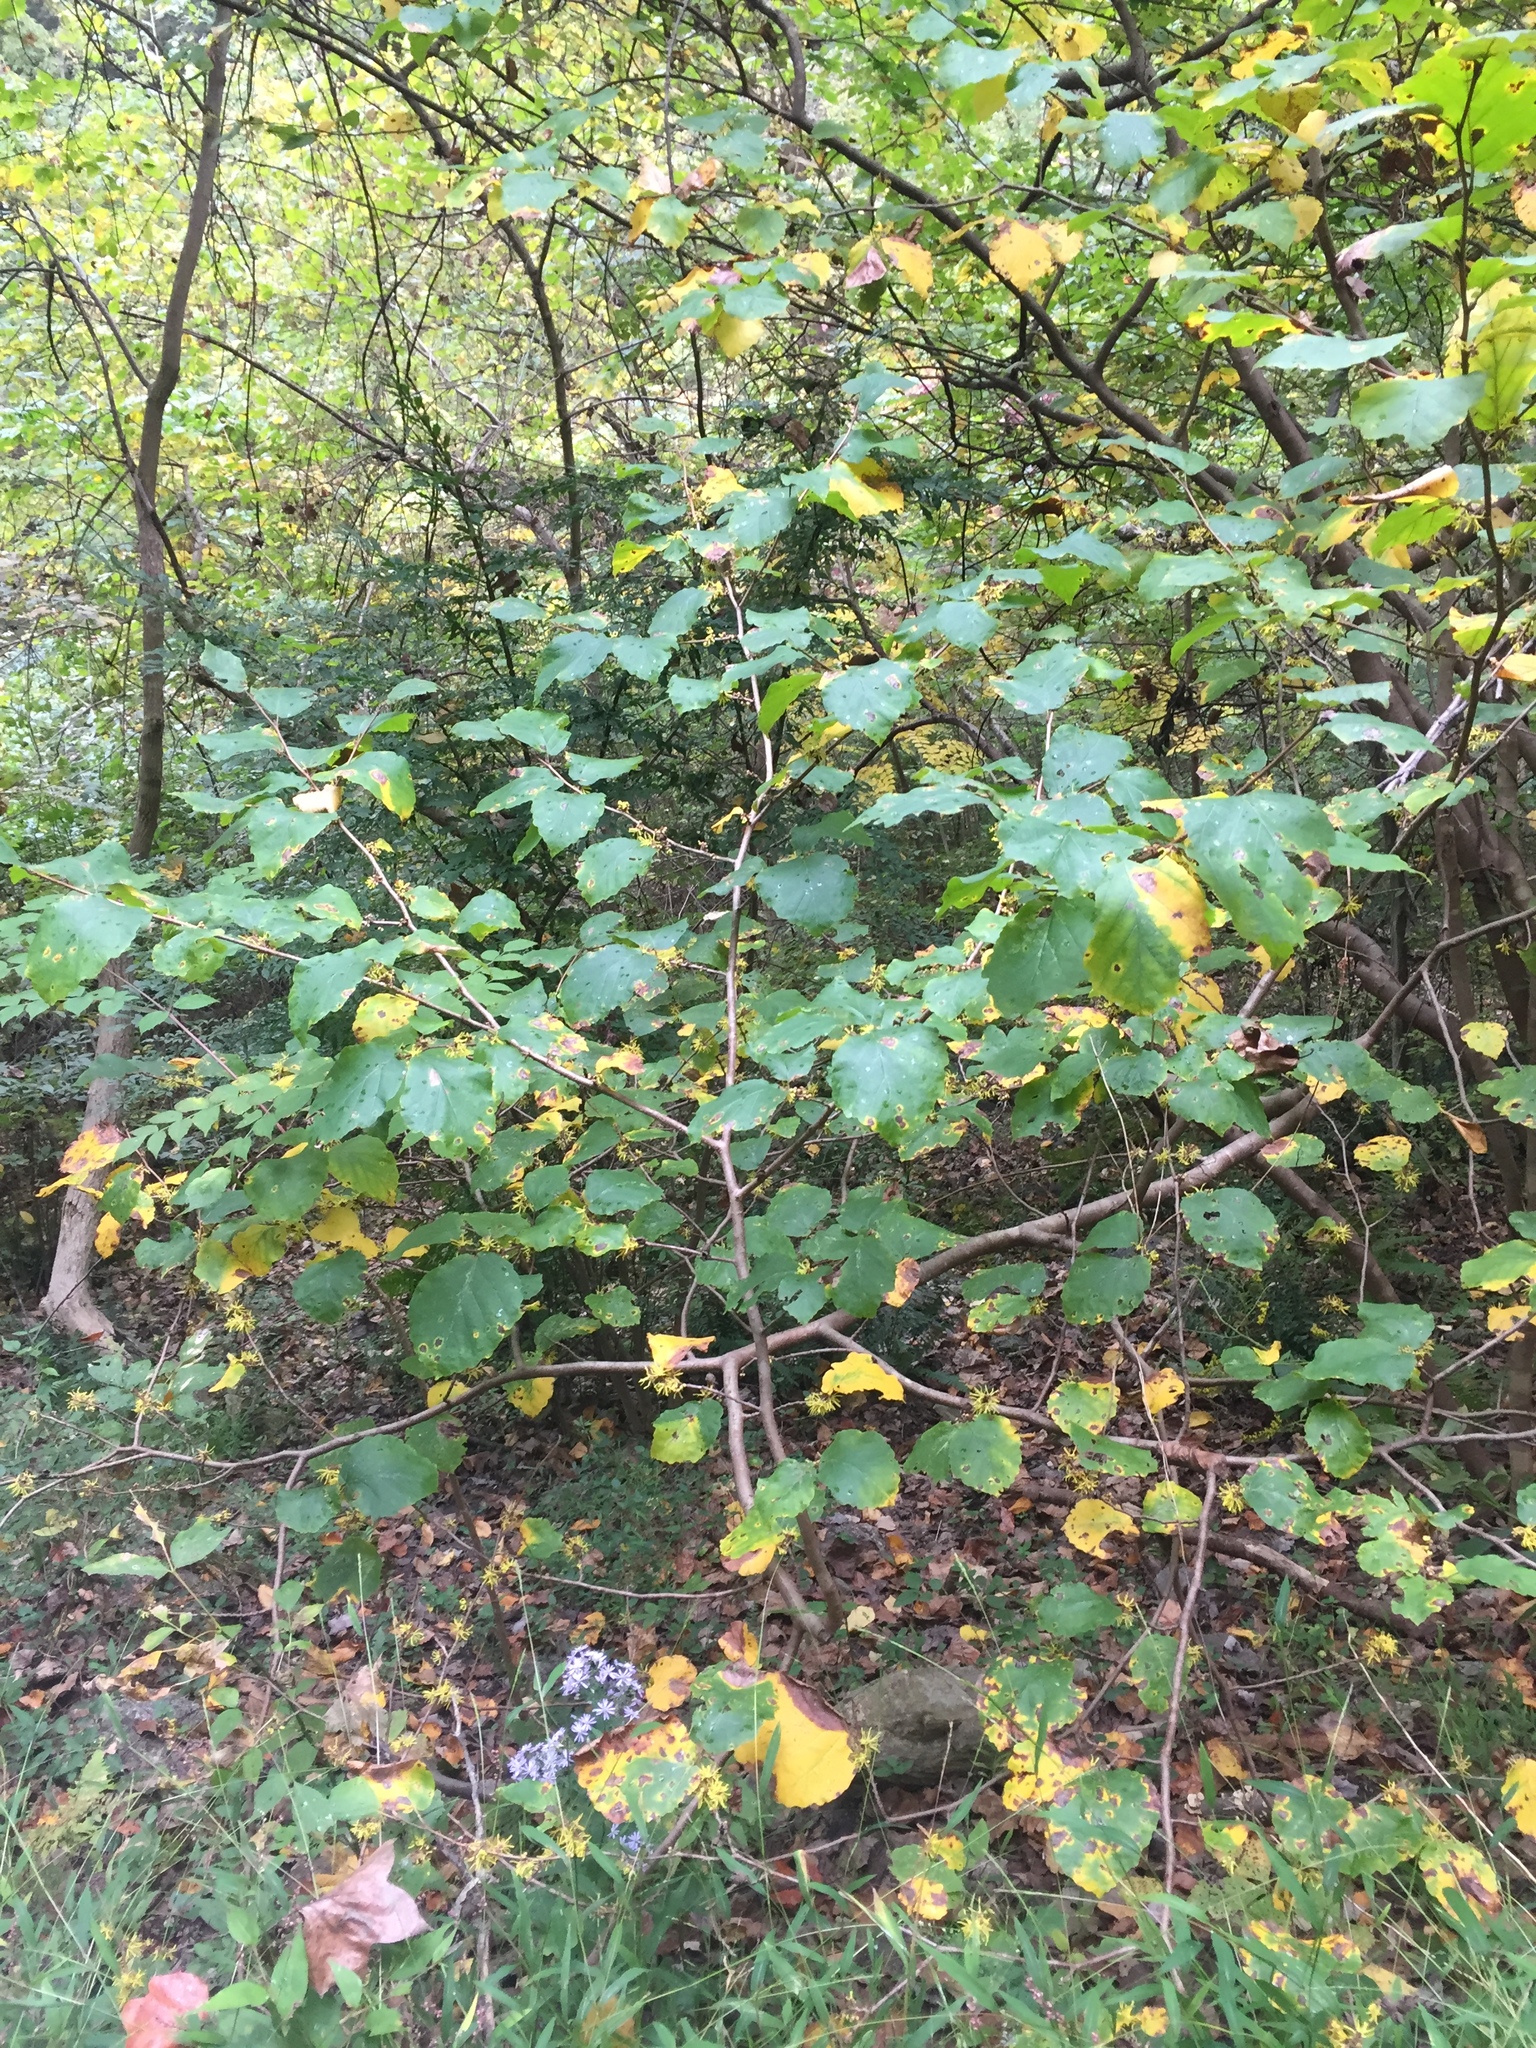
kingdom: Plantae
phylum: Tracheophyta
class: Magnoliopsida
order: Saxifragales
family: Hamamelidaceae
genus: Hamamelis
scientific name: Hamamelis virginiana
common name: Witch-hazel
